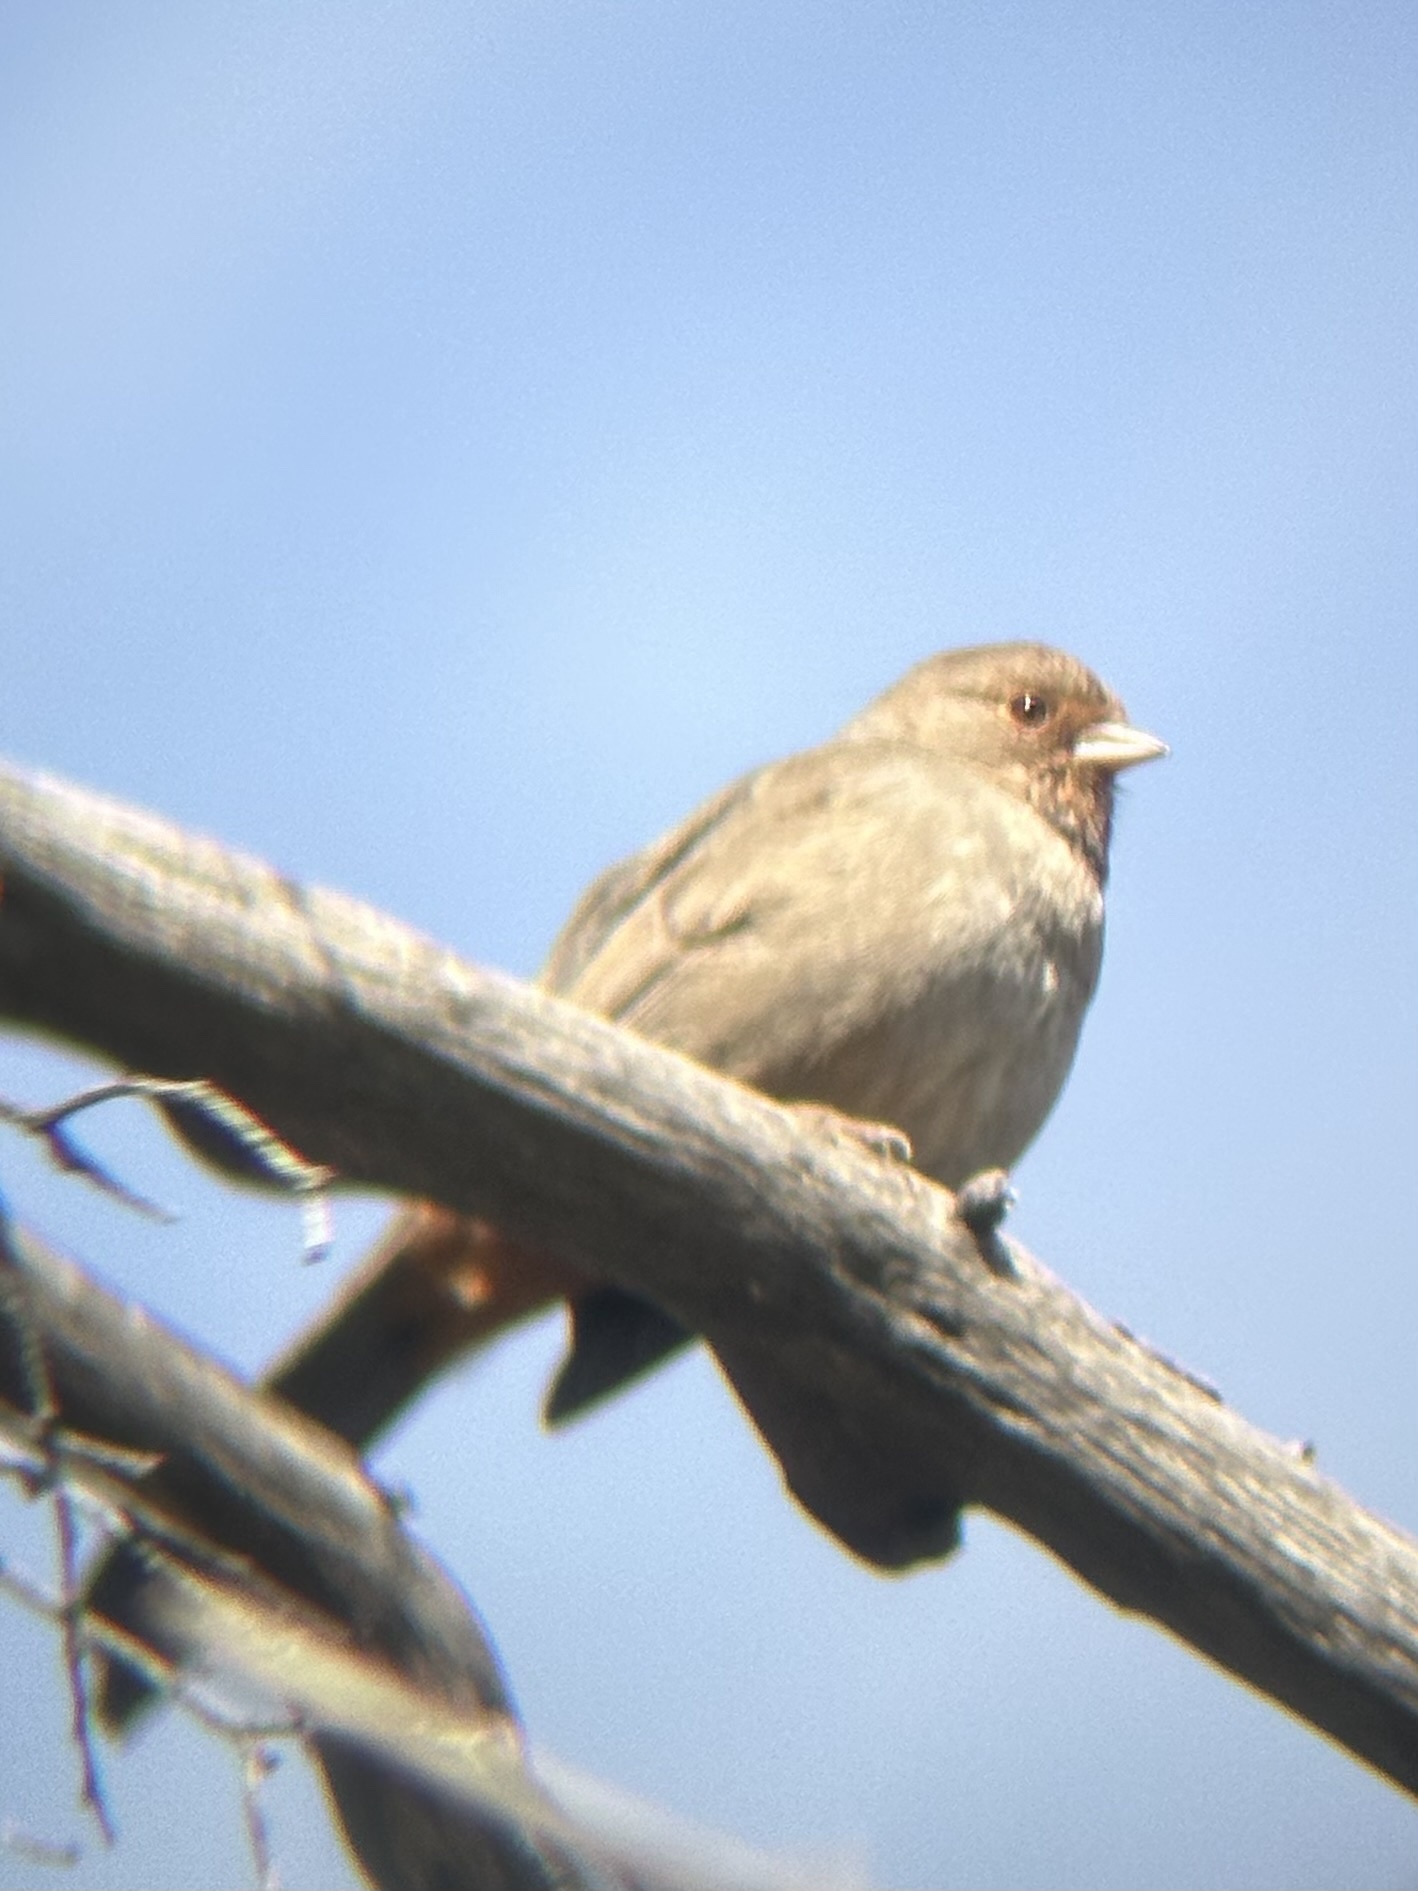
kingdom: Animalia
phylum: Chordata
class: Aves
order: Passeriformes
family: Passerellidae
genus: Melozone
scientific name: Melozone crissalis
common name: California towhee
